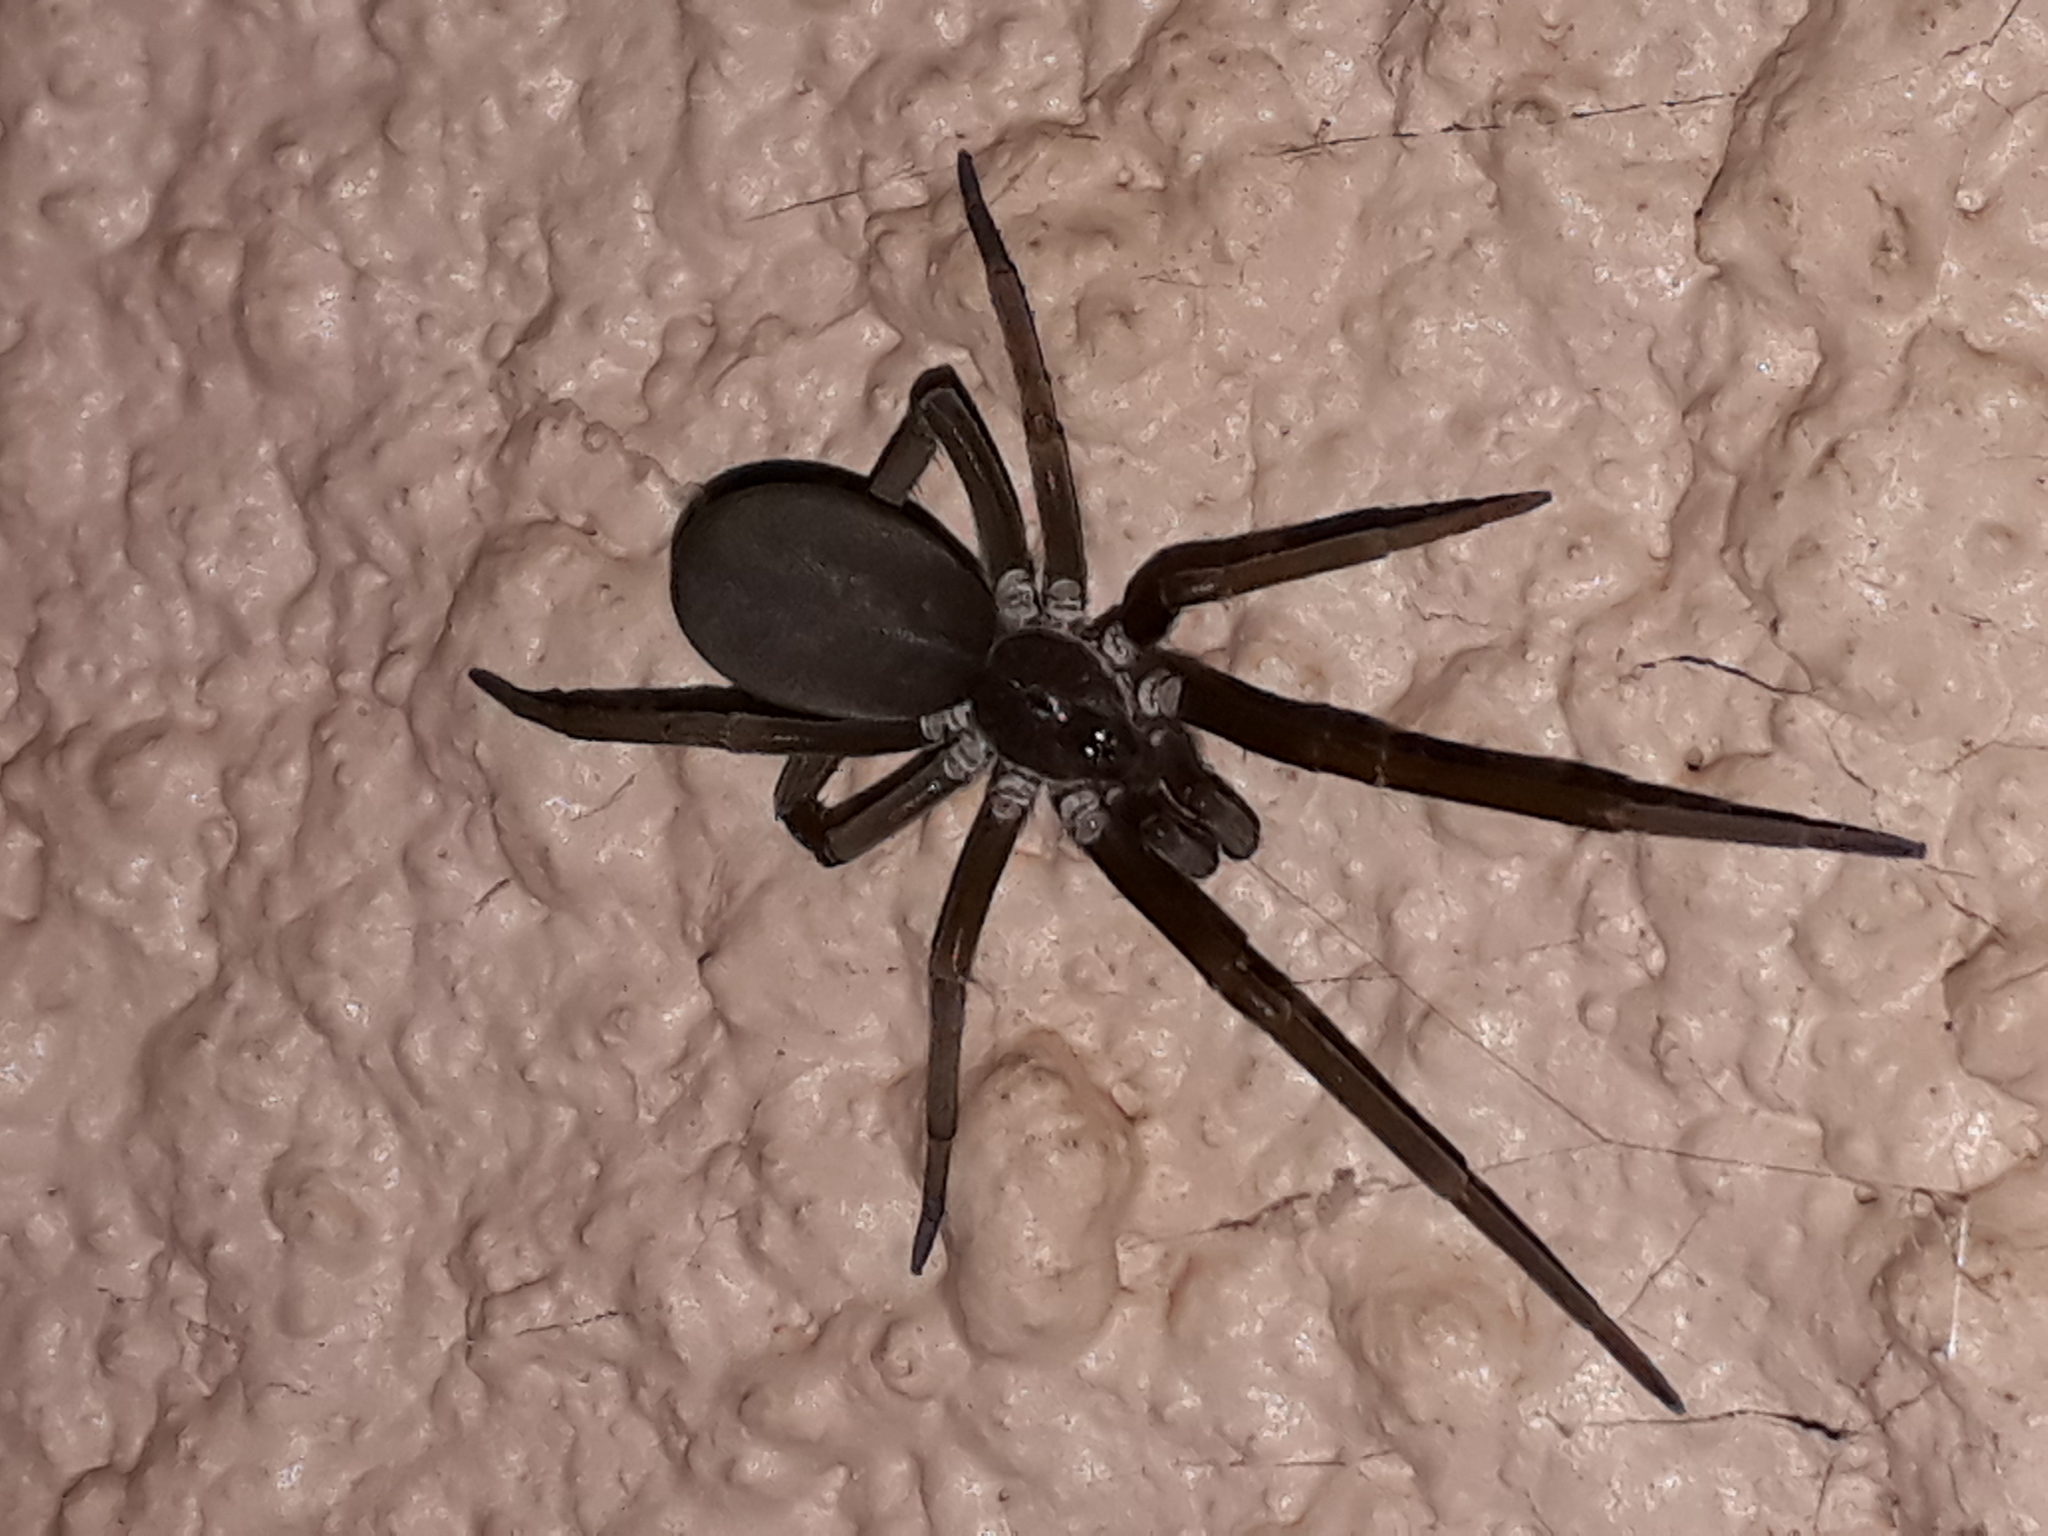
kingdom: Animalia
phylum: Arthropoda
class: Arachnida
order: Araneae
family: Filistatidae
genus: Kukulcania
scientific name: Kukulcania hibernalis
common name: Crevice weaver
